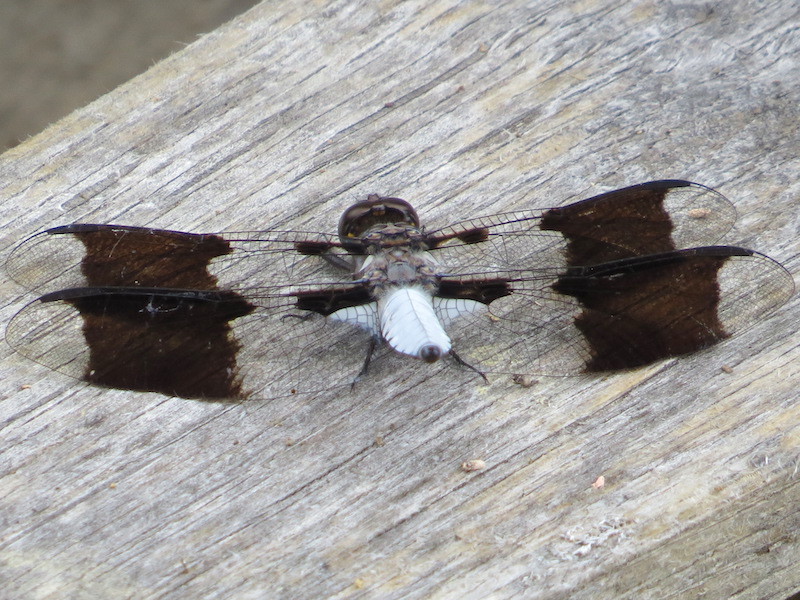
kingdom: Animalia
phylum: Arthropoda
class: Insecta
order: Odonata
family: Libellulidae
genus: Plathemis
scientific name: Plathemis lydia
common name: Common whitetail
